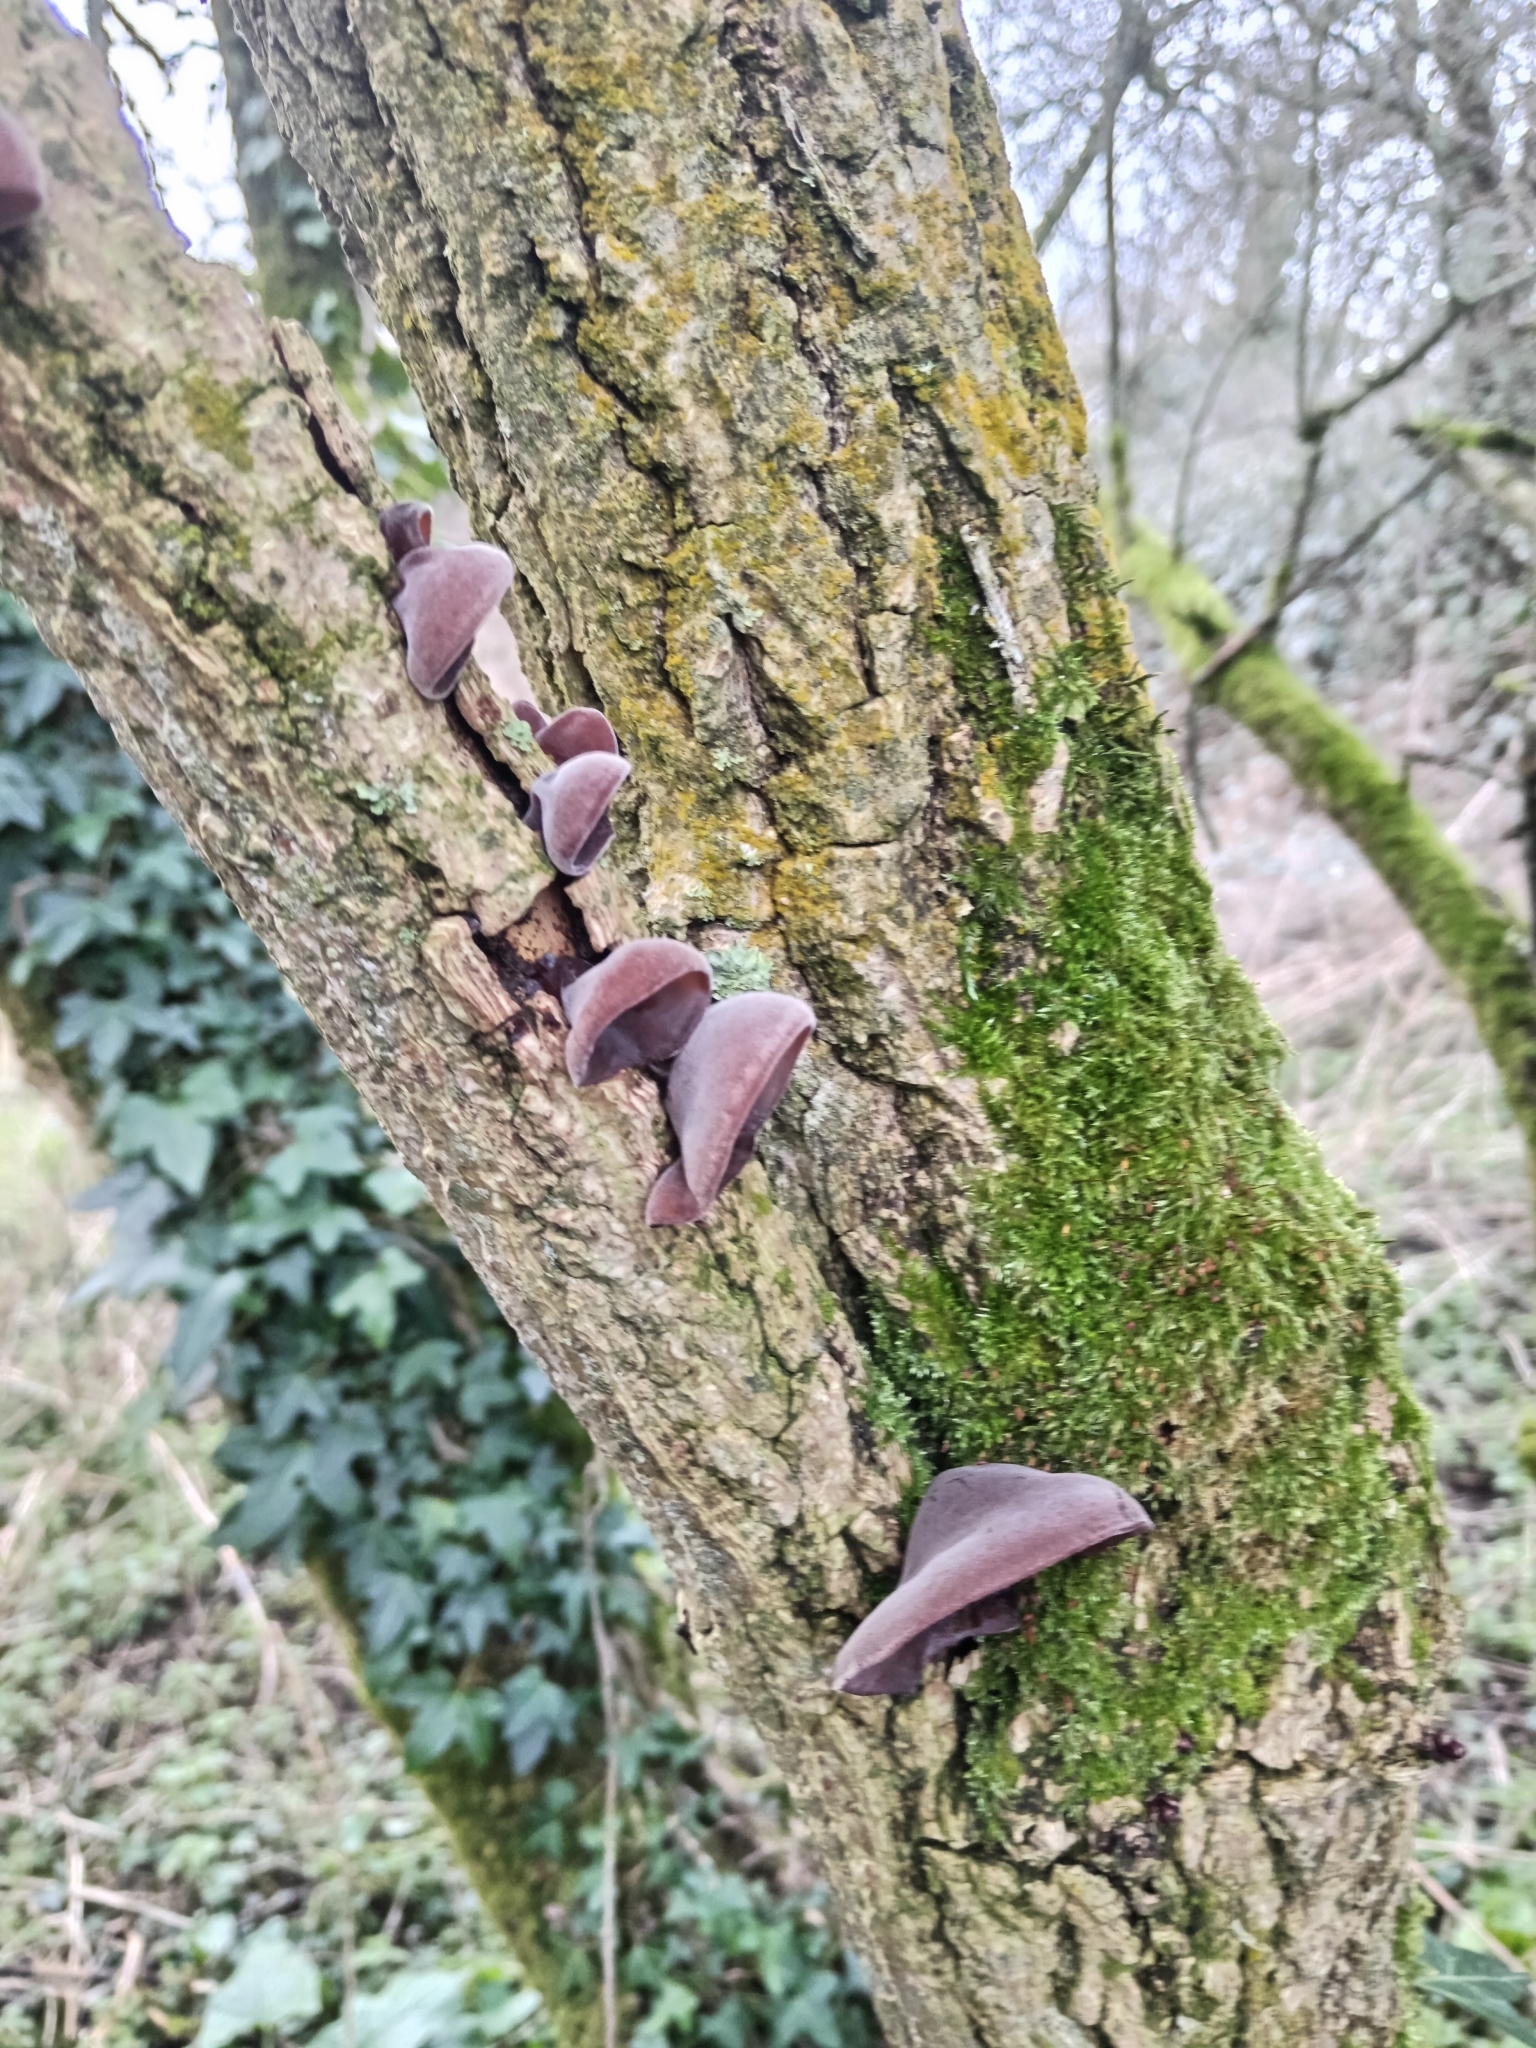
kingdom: Fungi
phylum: Basidiomycota
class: Agaricomycetes
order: Auriculariales
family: Auriculariaceae
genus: Auricularia
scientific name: Auricularia auricula-judae
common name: Jelly ear
